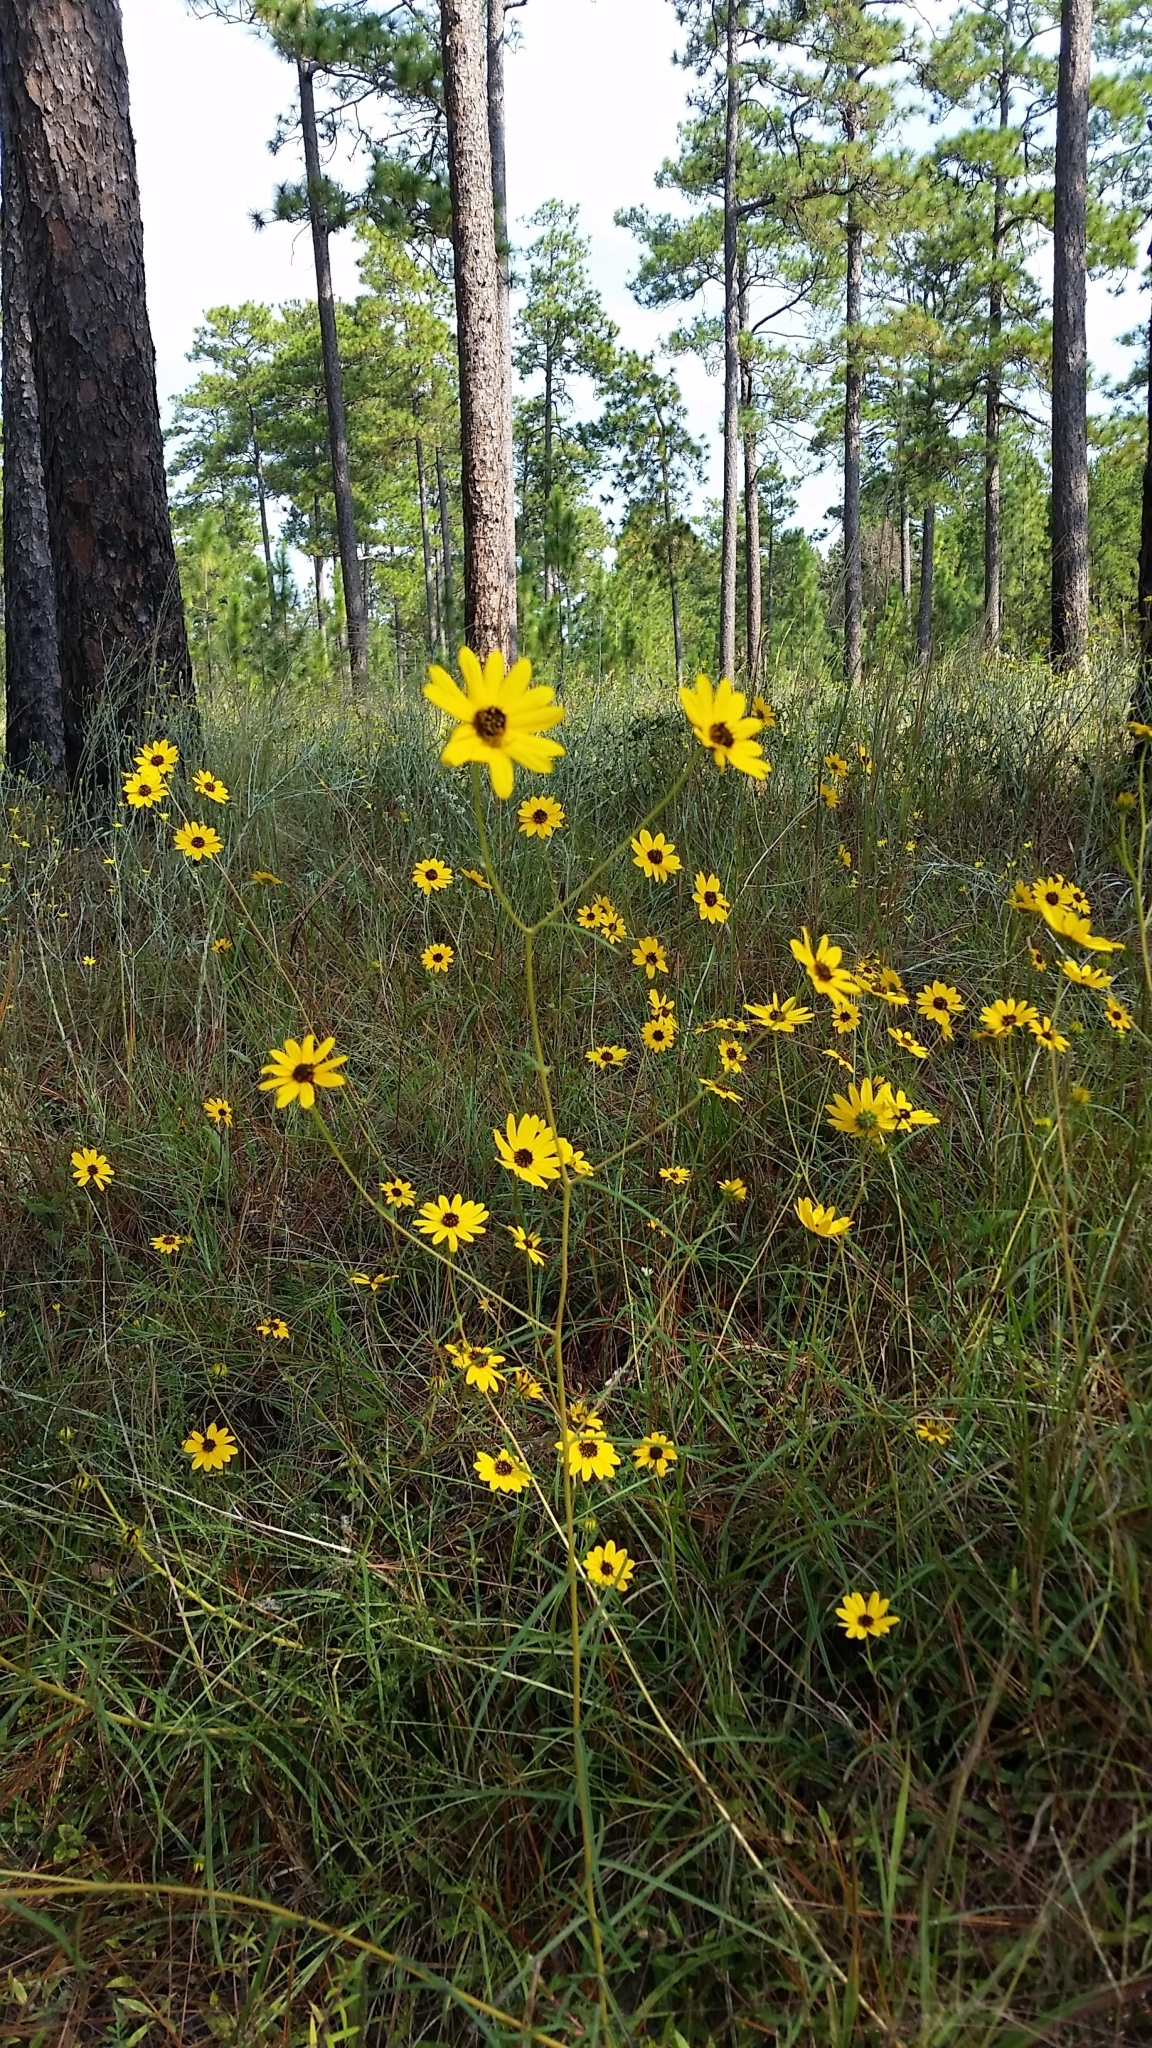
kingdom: Plantae
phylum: Tracheophyta
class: Magnoliopsida
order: Asterales
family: Asteraceae
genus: Helianthus
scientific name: Helianthus angustifolius
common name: Swamp sunflower
